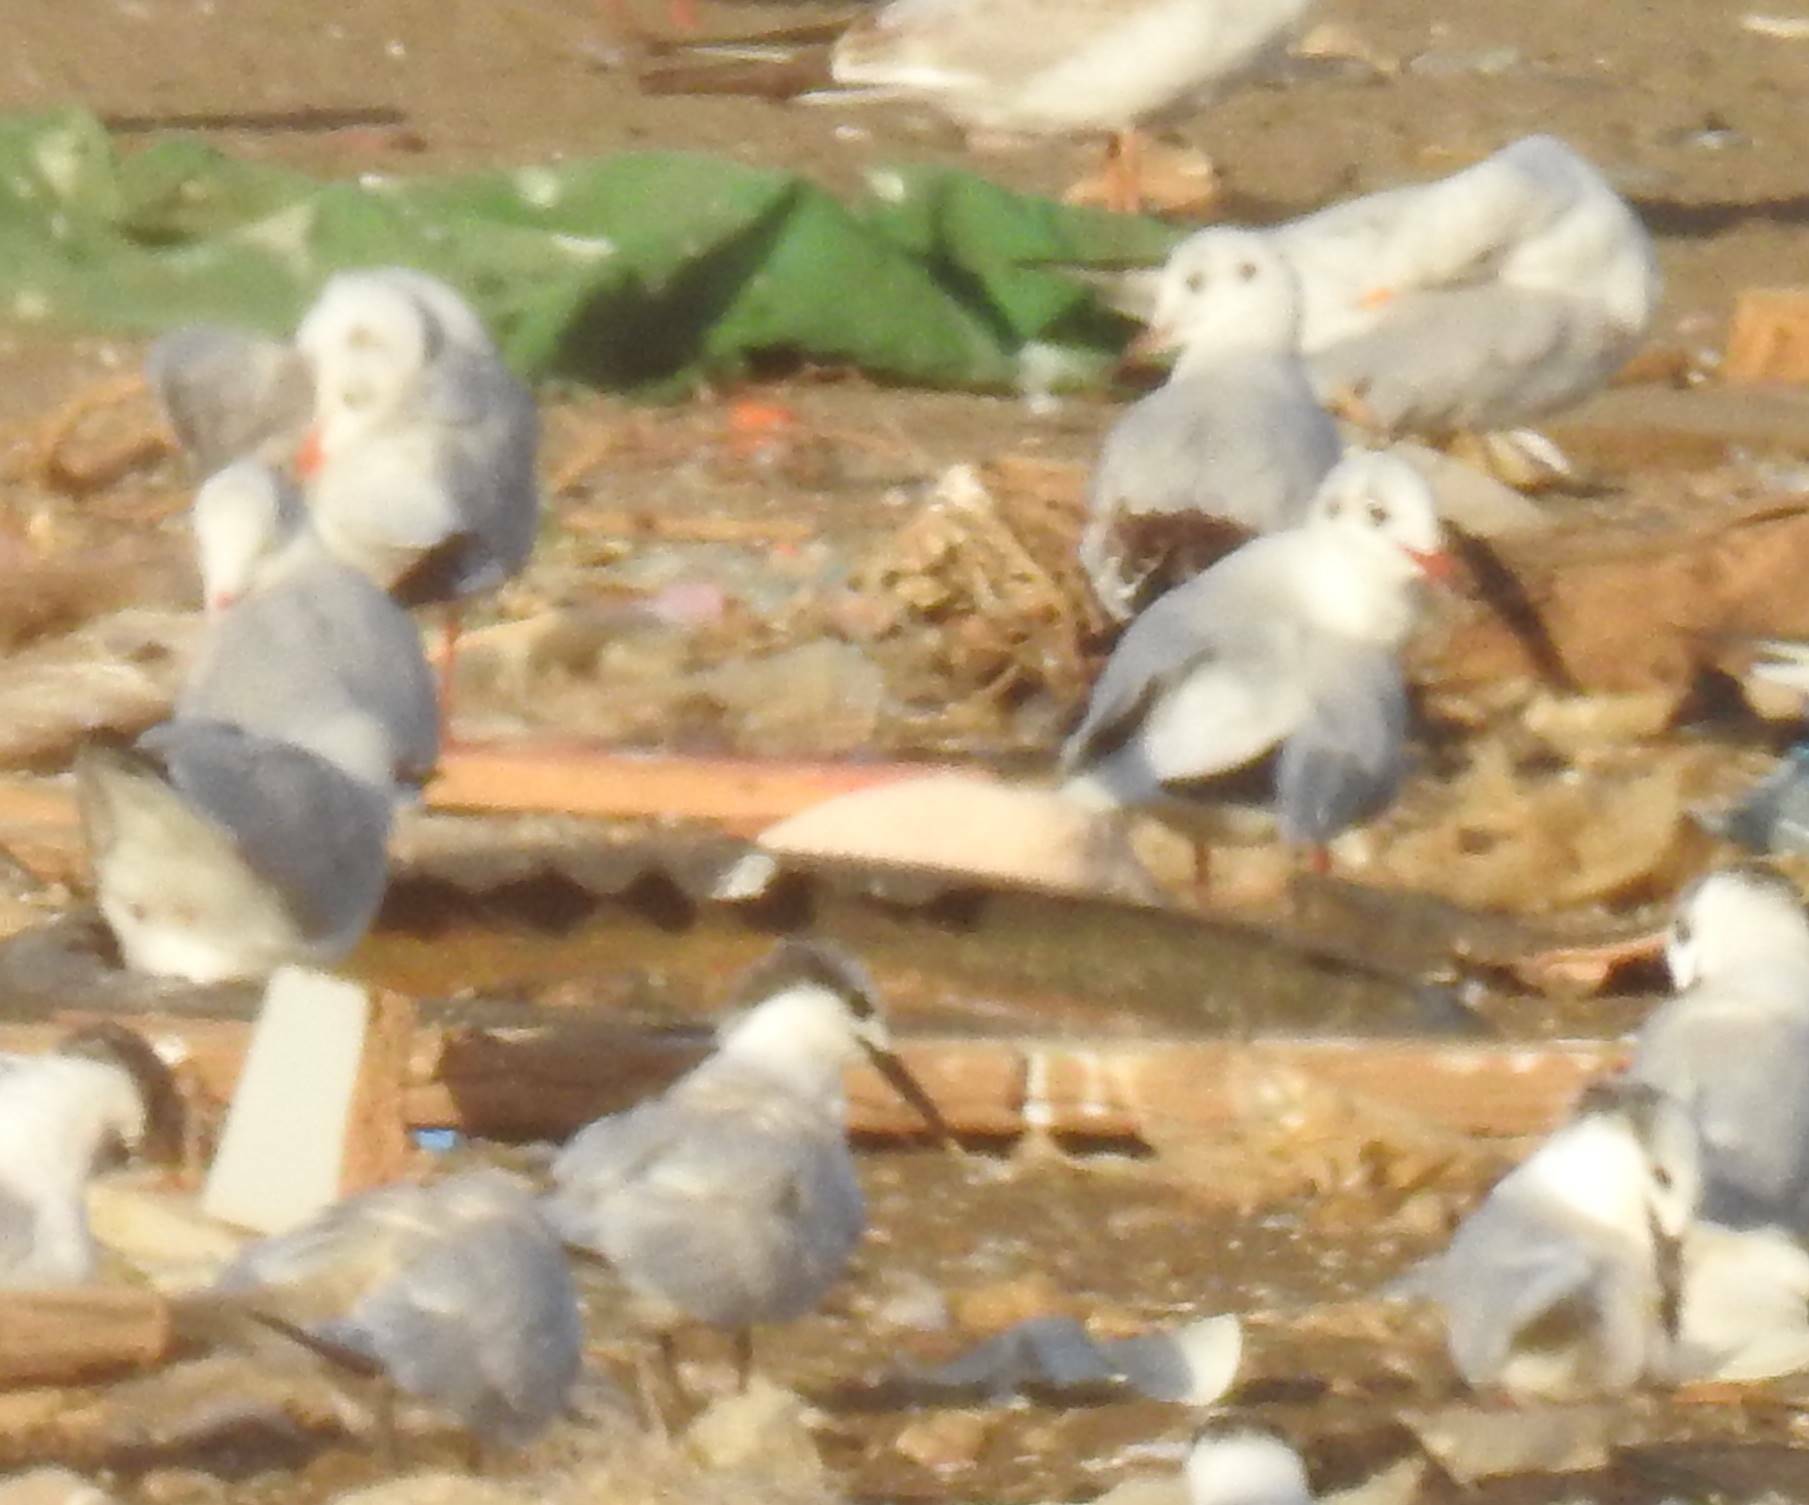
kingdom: Animalia
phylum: Chordata
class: Aves
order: Charadriiformes
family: Laridae
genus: Thalasseus
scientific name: Thalasseus sandvicensis
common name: Sandwich tern
